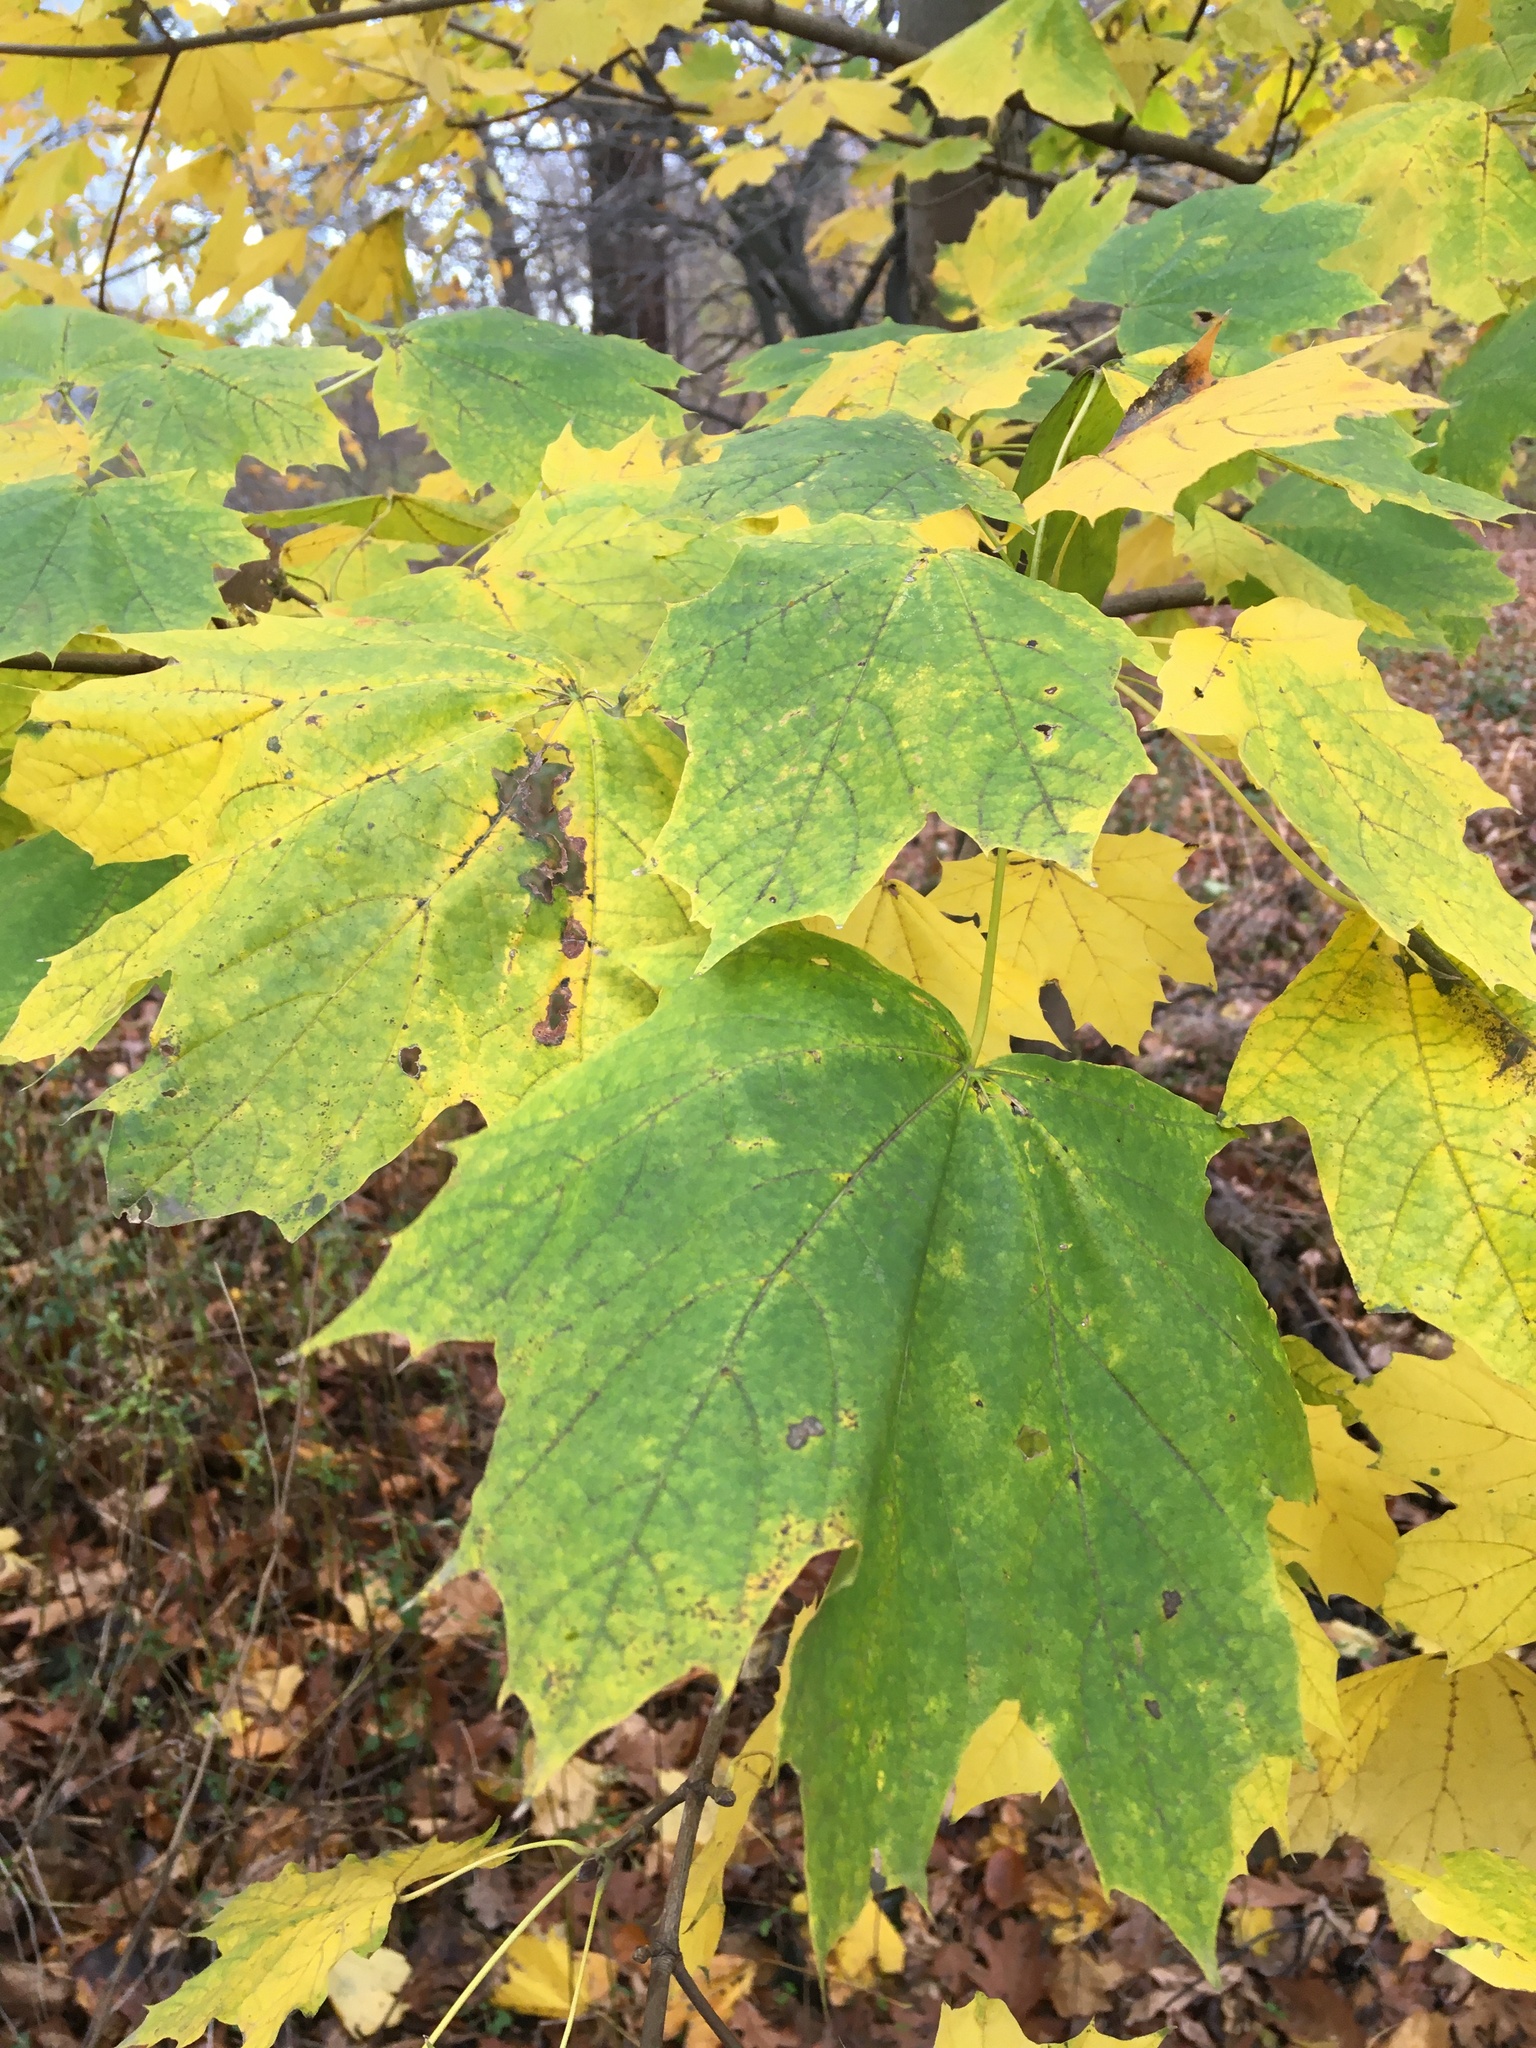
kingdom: Plantae
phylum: Tracheophyta
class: Magnoliopsida
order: Sapindales
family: Sapindaceae
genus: Acer
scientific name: Acer platanoides
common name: Norway maple
